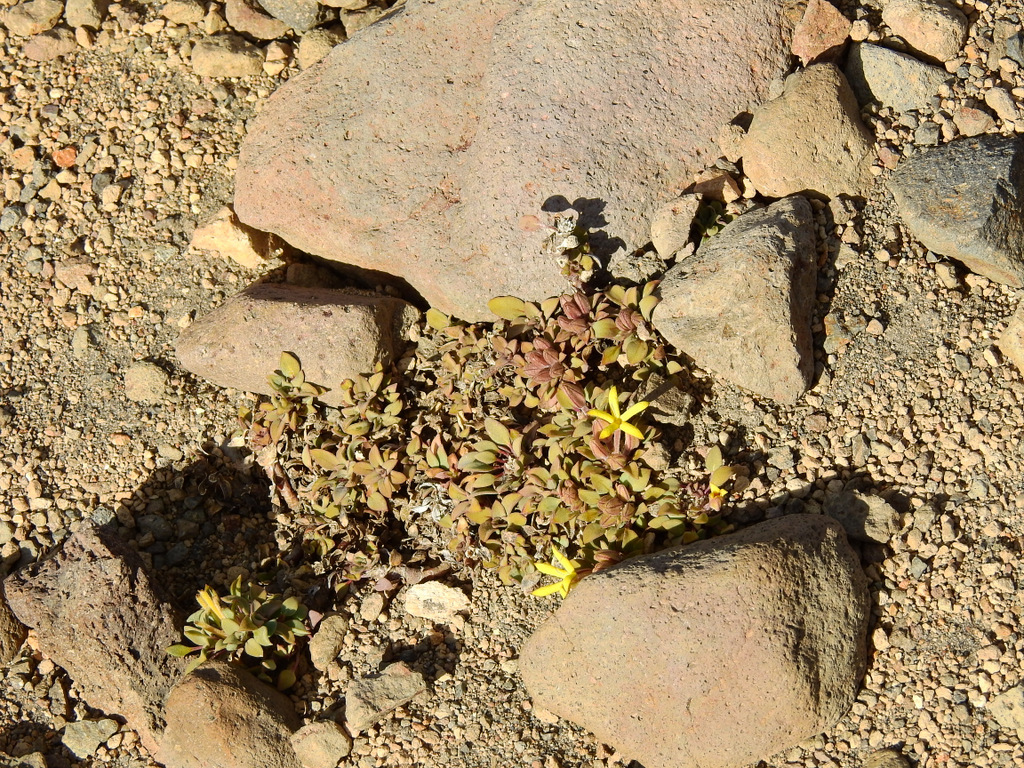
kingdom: Plantae
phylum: Tracheophyta
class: Magnoliopsida
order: Gentianales
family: Rubiaceae
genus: Oreopolus
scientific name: Oreopolus glacialis
